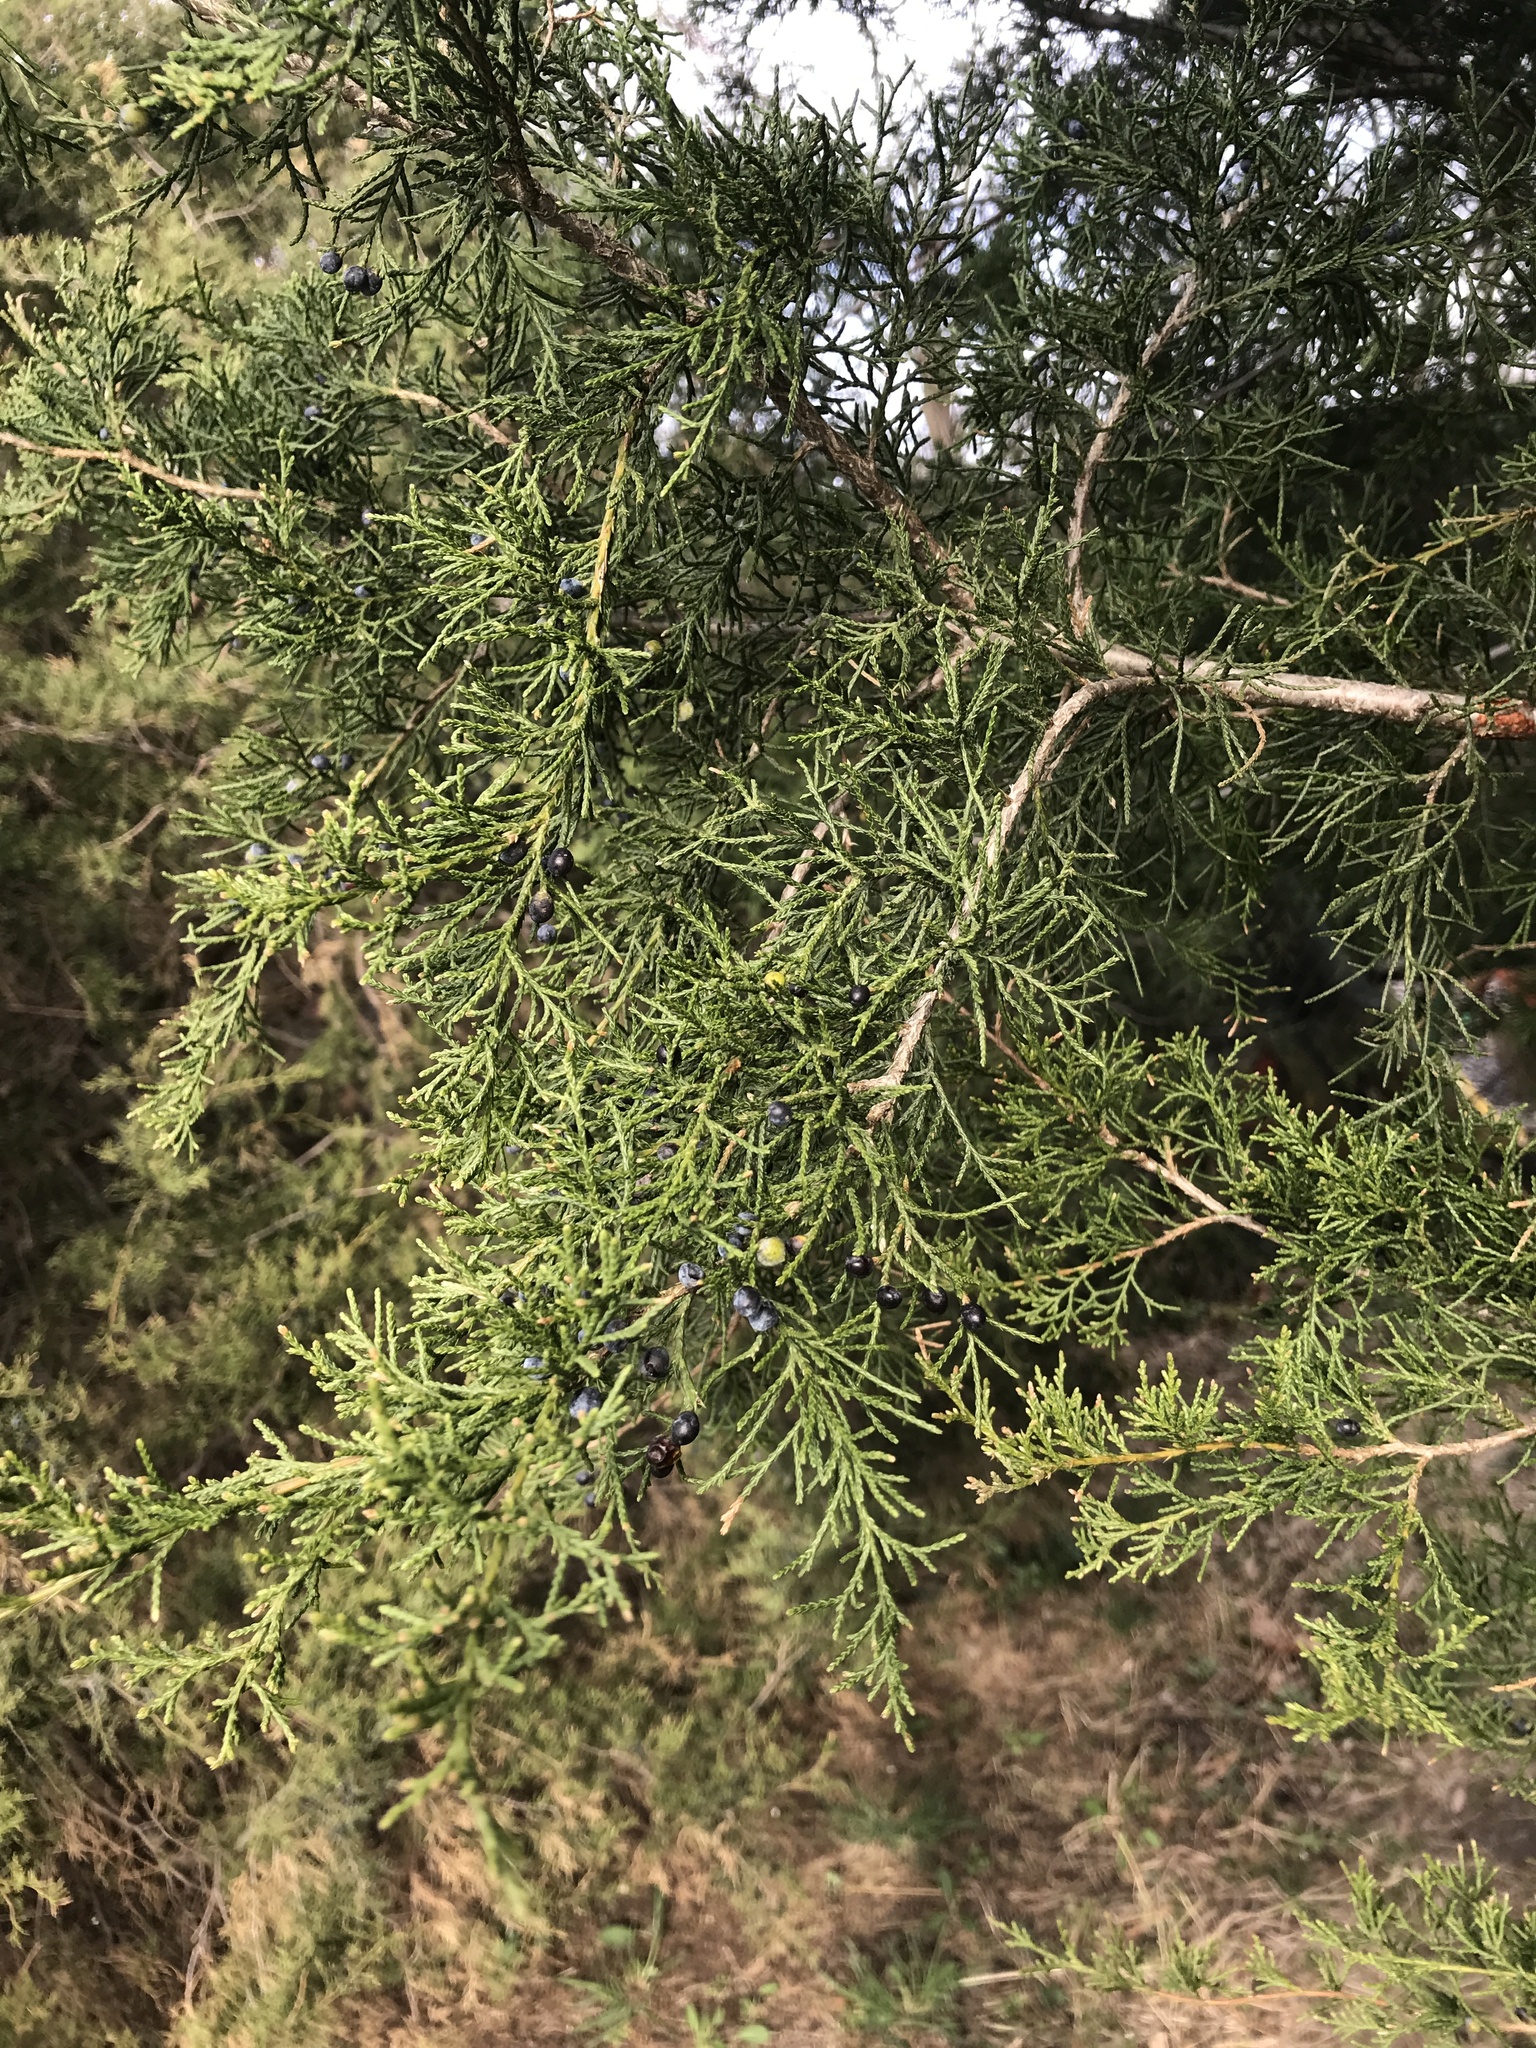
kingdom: Fungi
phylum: Basidiomycota
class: Pucciniomycetes
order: Pucciniales
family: Gymnosporangiaceae
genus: Gymnosporangium
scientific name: Gymnosporangium clavipes
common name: Quince rust
